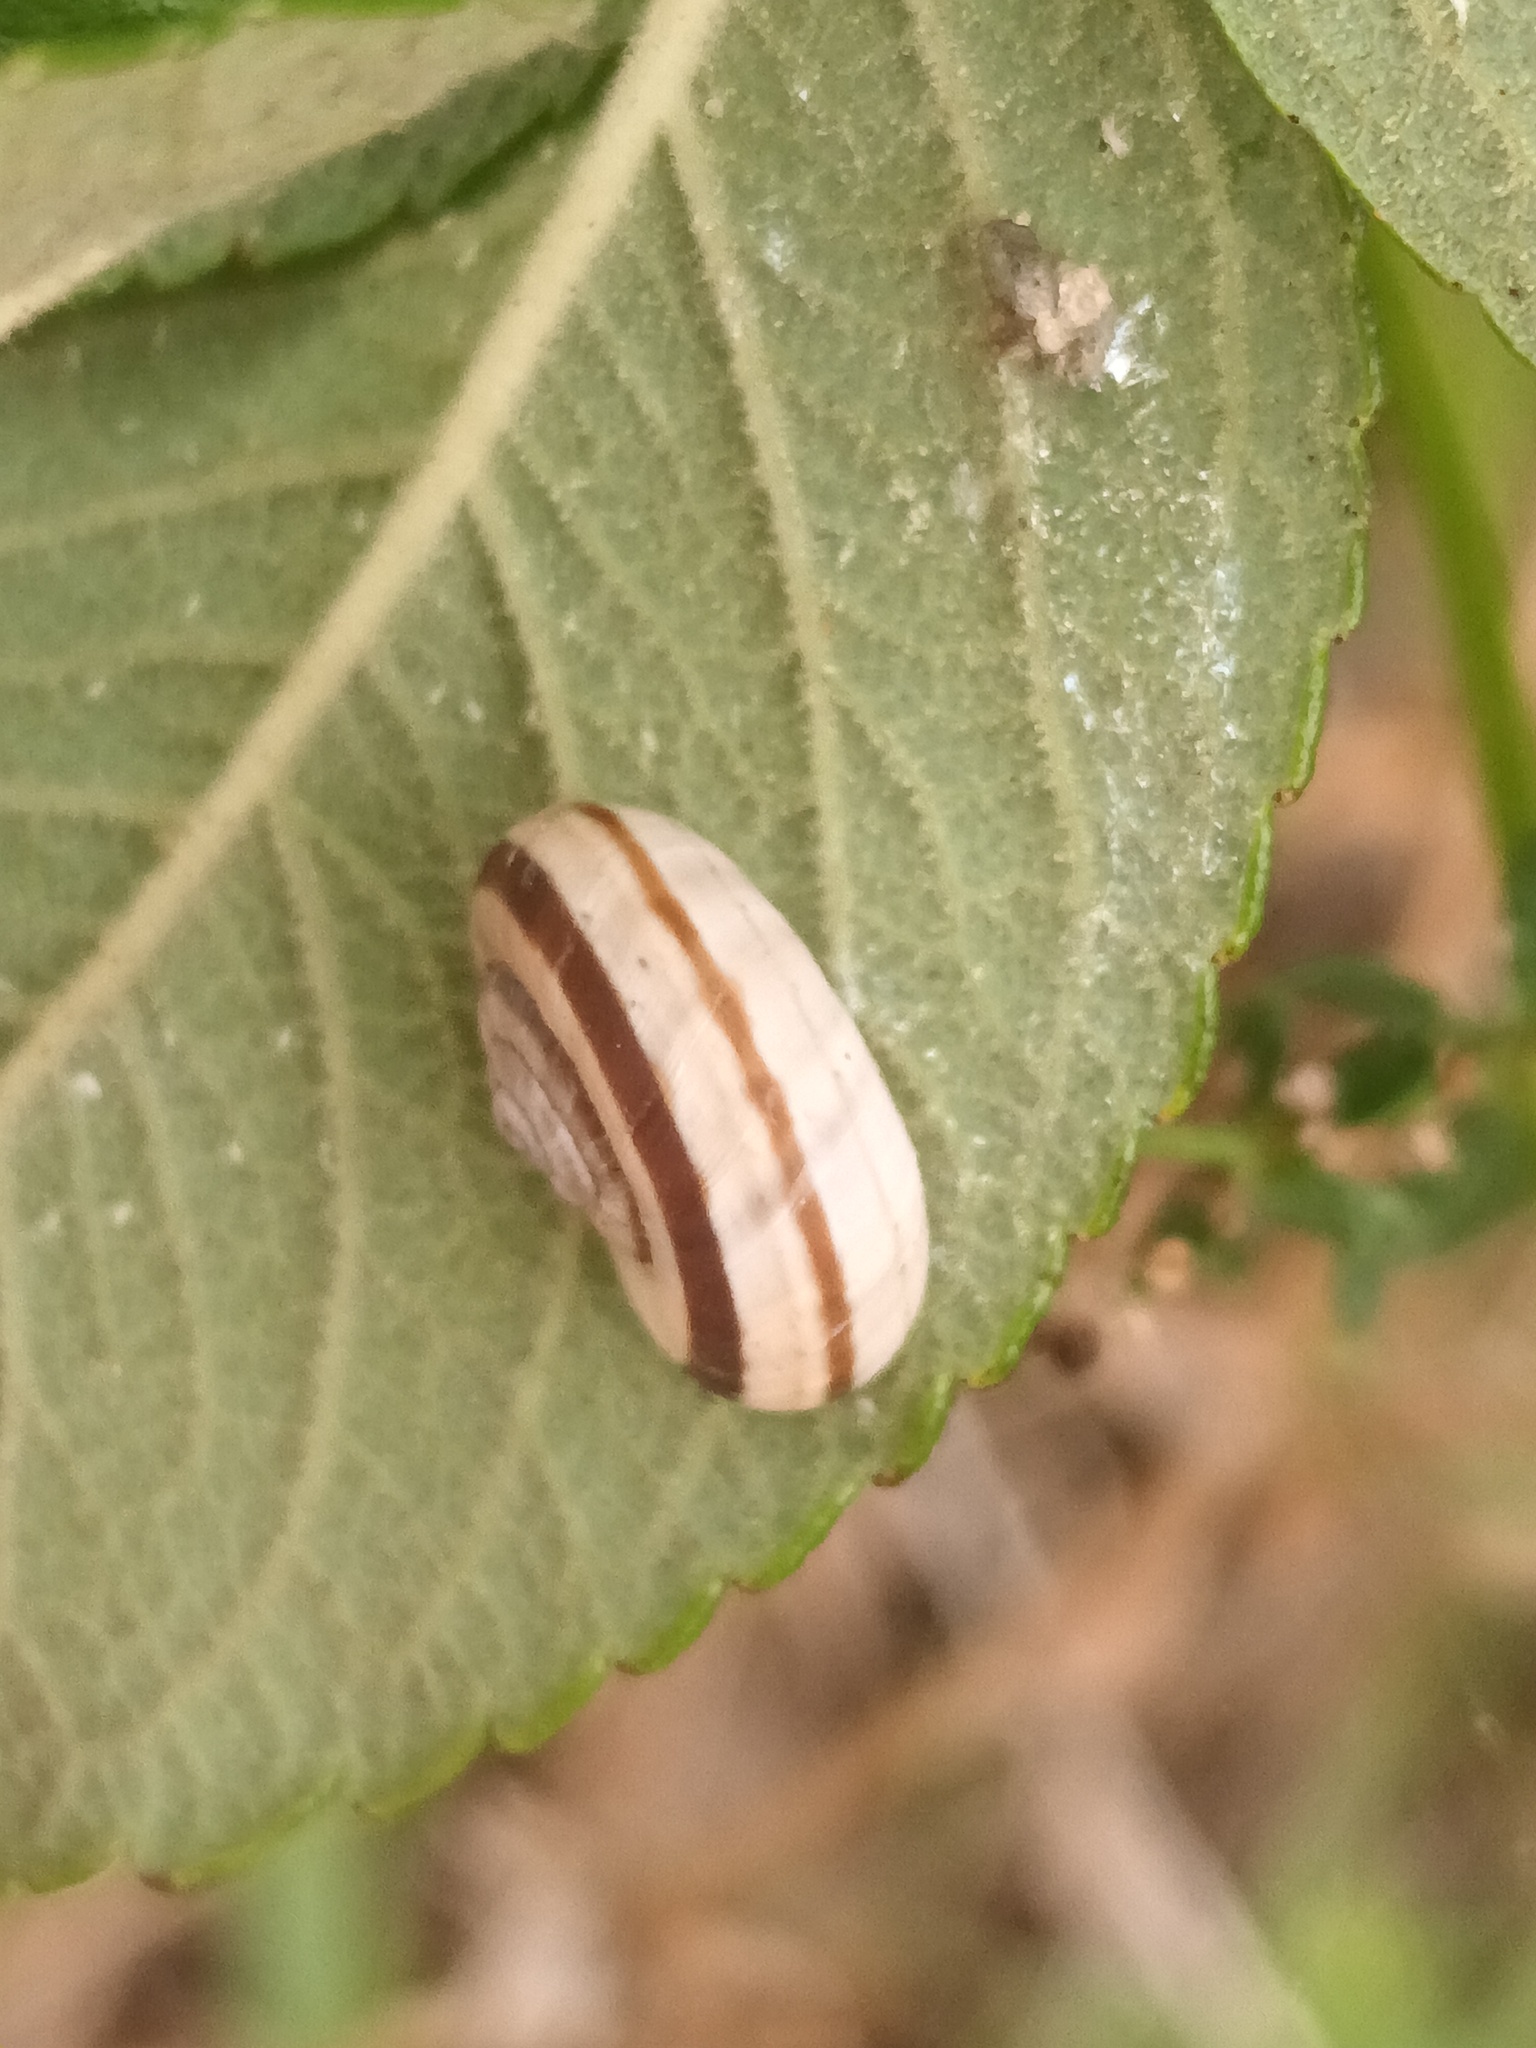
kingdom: Animalia
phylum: Mollusca
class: Gastropoda
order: Stylommatophora
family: Geomitridae
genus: Xerolenta
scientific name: Xerolenta obvia
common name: White heath snail
